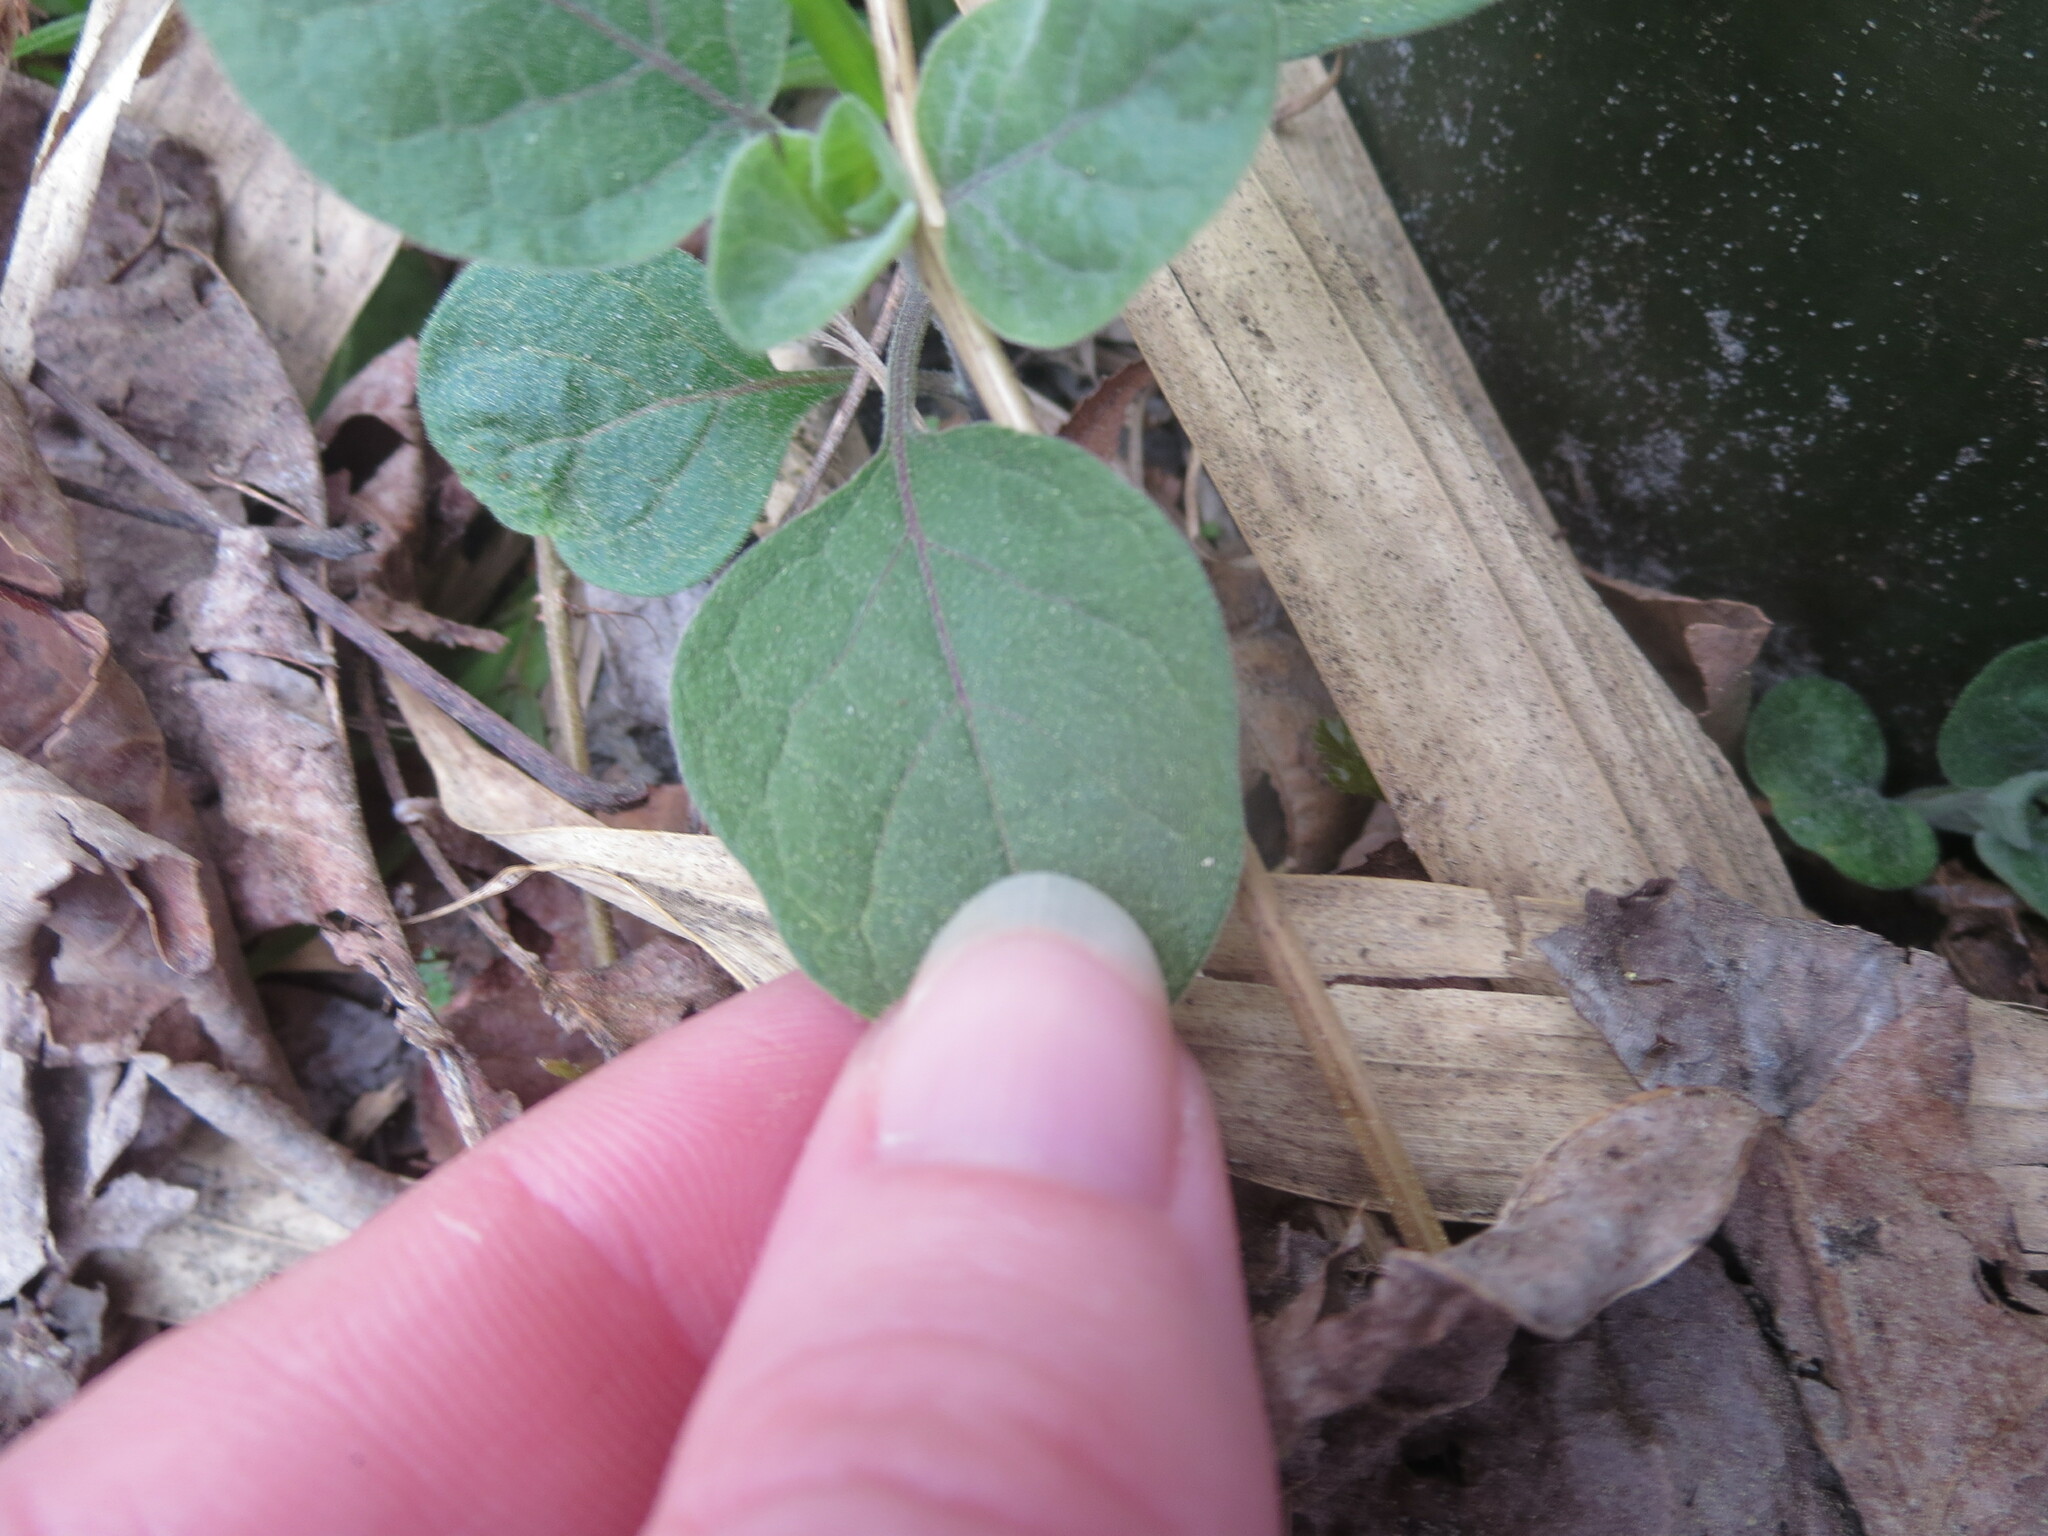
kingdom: Plantae
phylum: Tracheophyta
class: Magnoliopsida
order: Solanales
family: Solanaceae
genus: Physalis
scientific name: Physalis walteri
